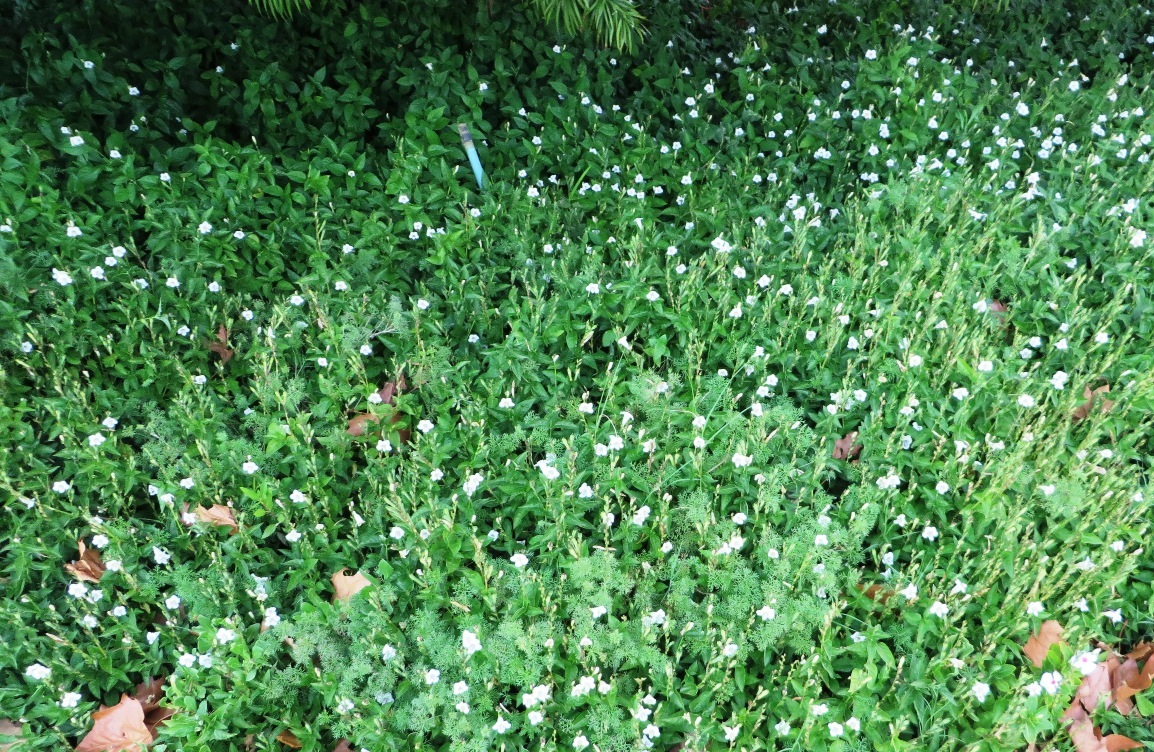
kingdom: Plantae
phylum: Tracheophyta
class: Magnoliopsida
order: Lamiales
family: Acanthaceae
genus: Asystasia
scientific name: Asystasia intrusa
